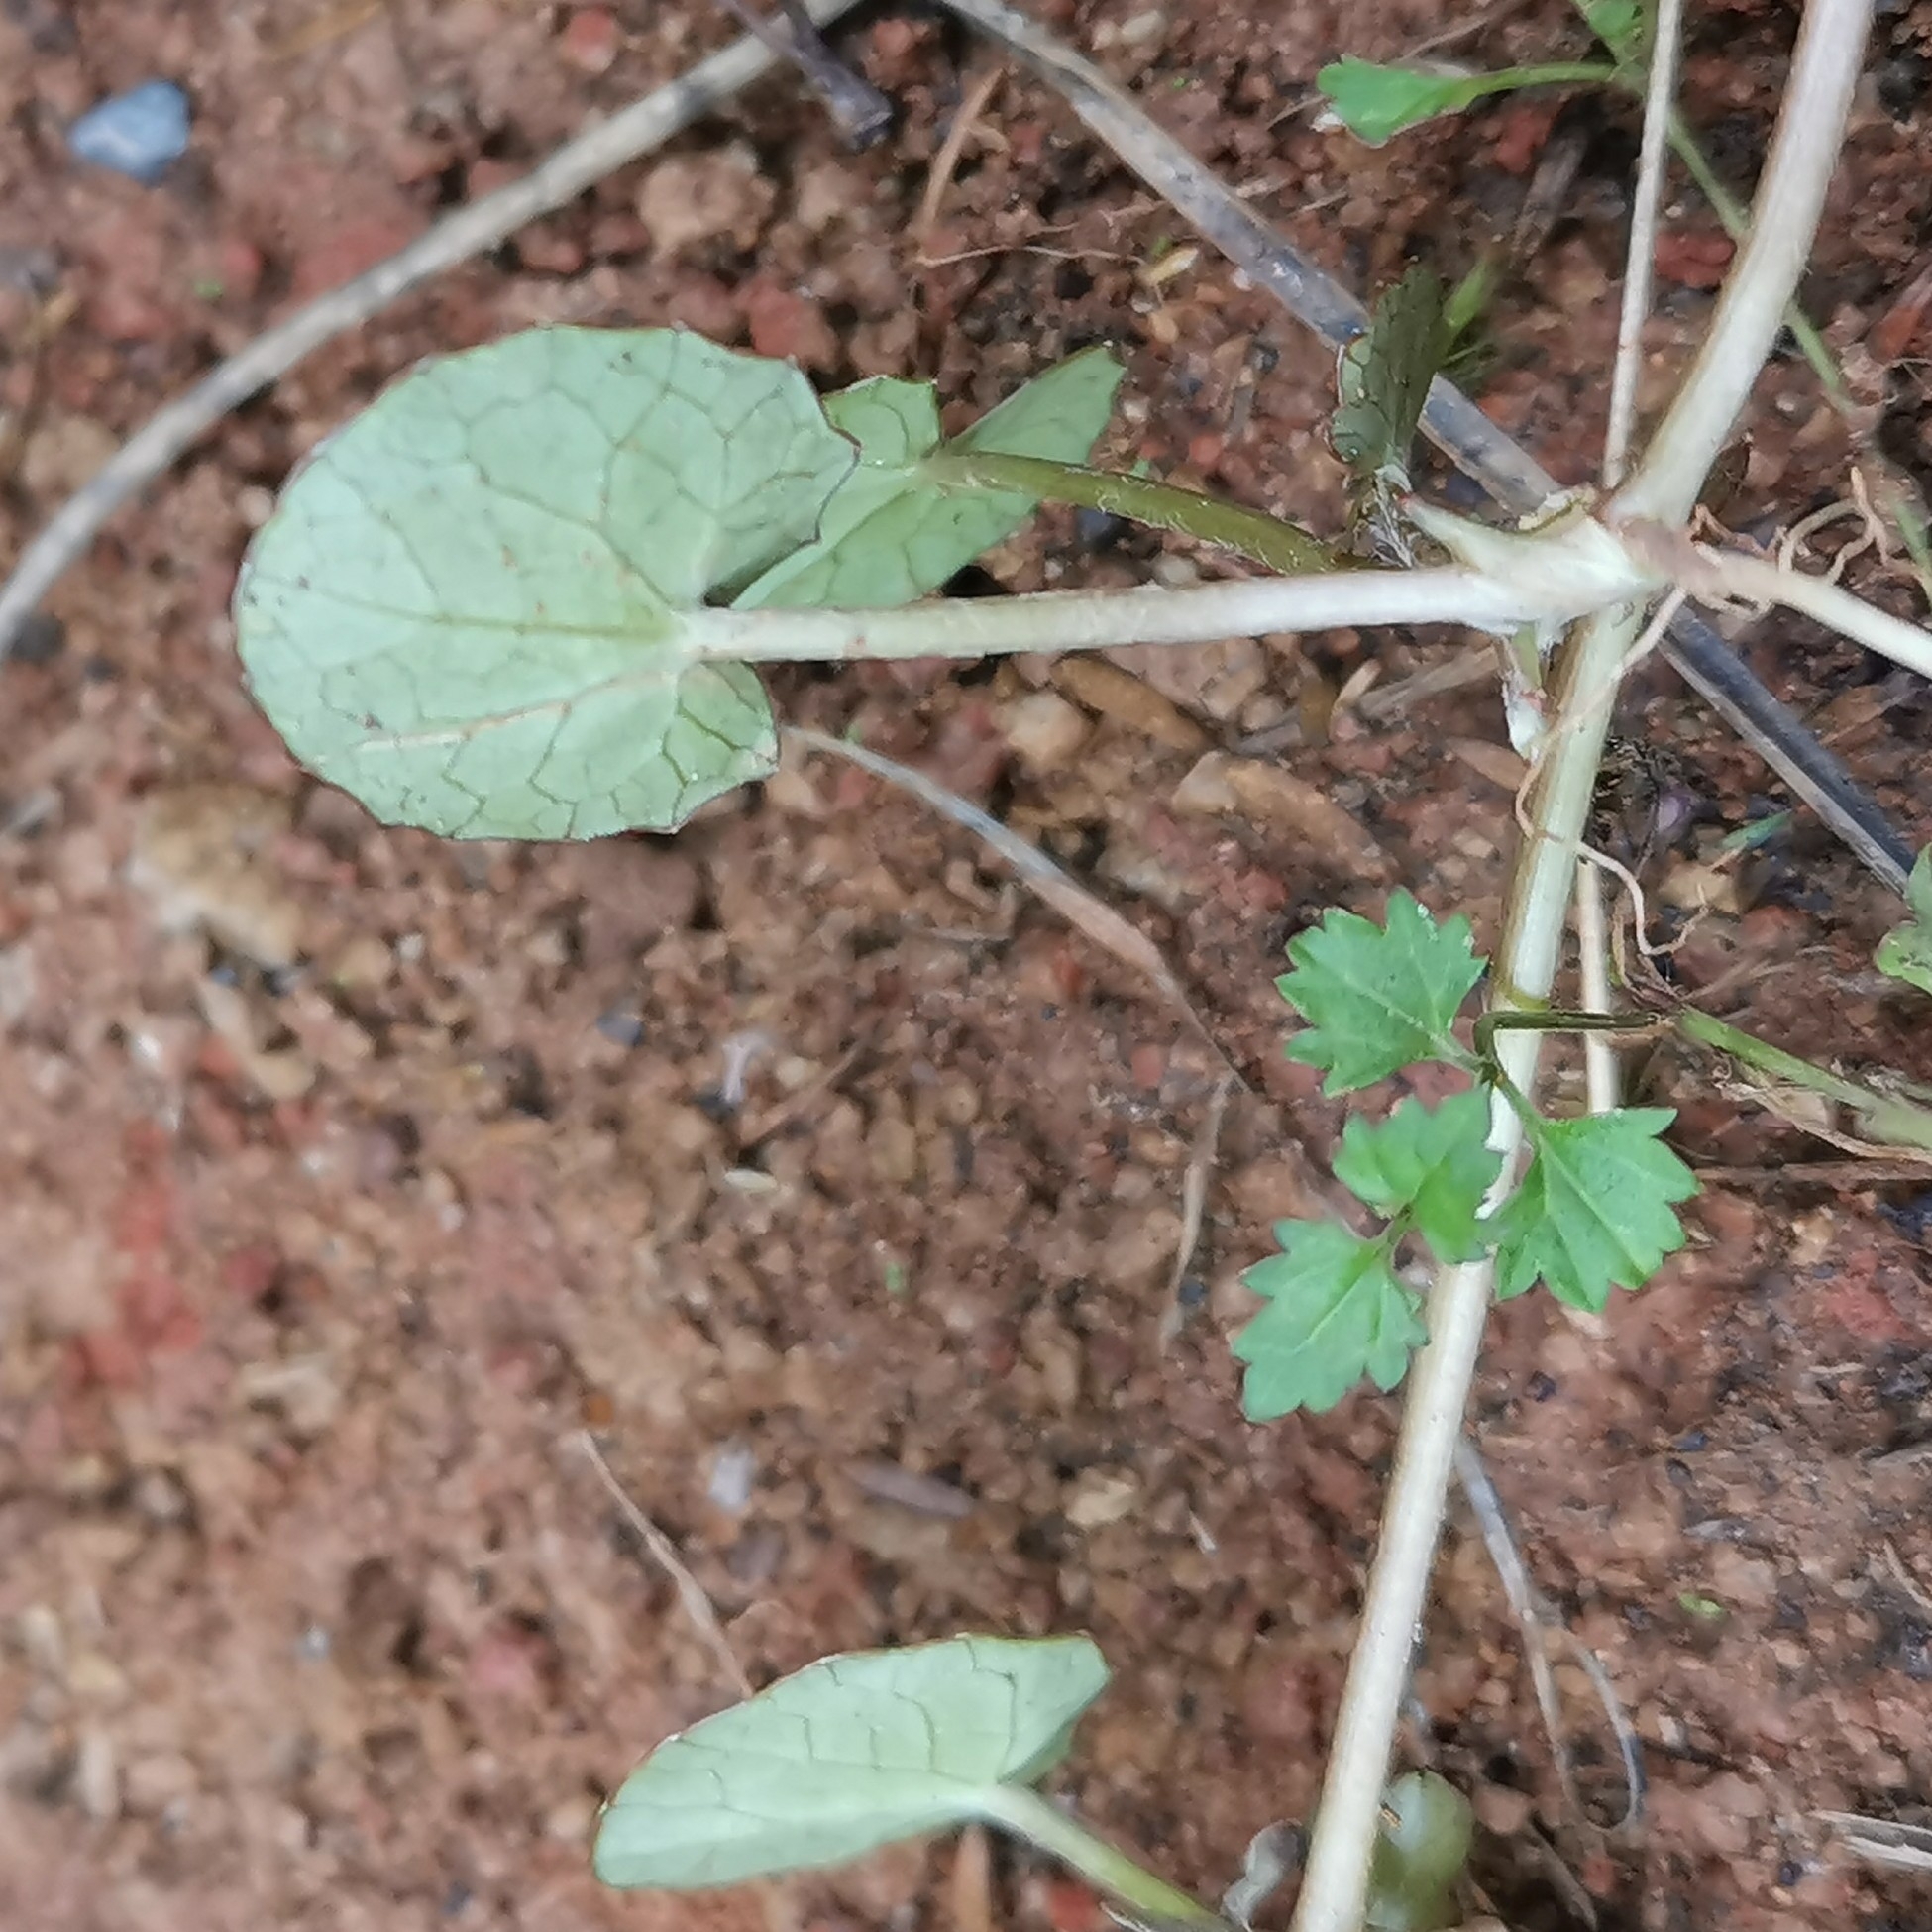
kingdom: Plantae
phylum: Tracheophyta
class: Magnoliopsida
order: Apiales
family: Apiaceae
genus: Centella
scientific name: Centella uniflora
